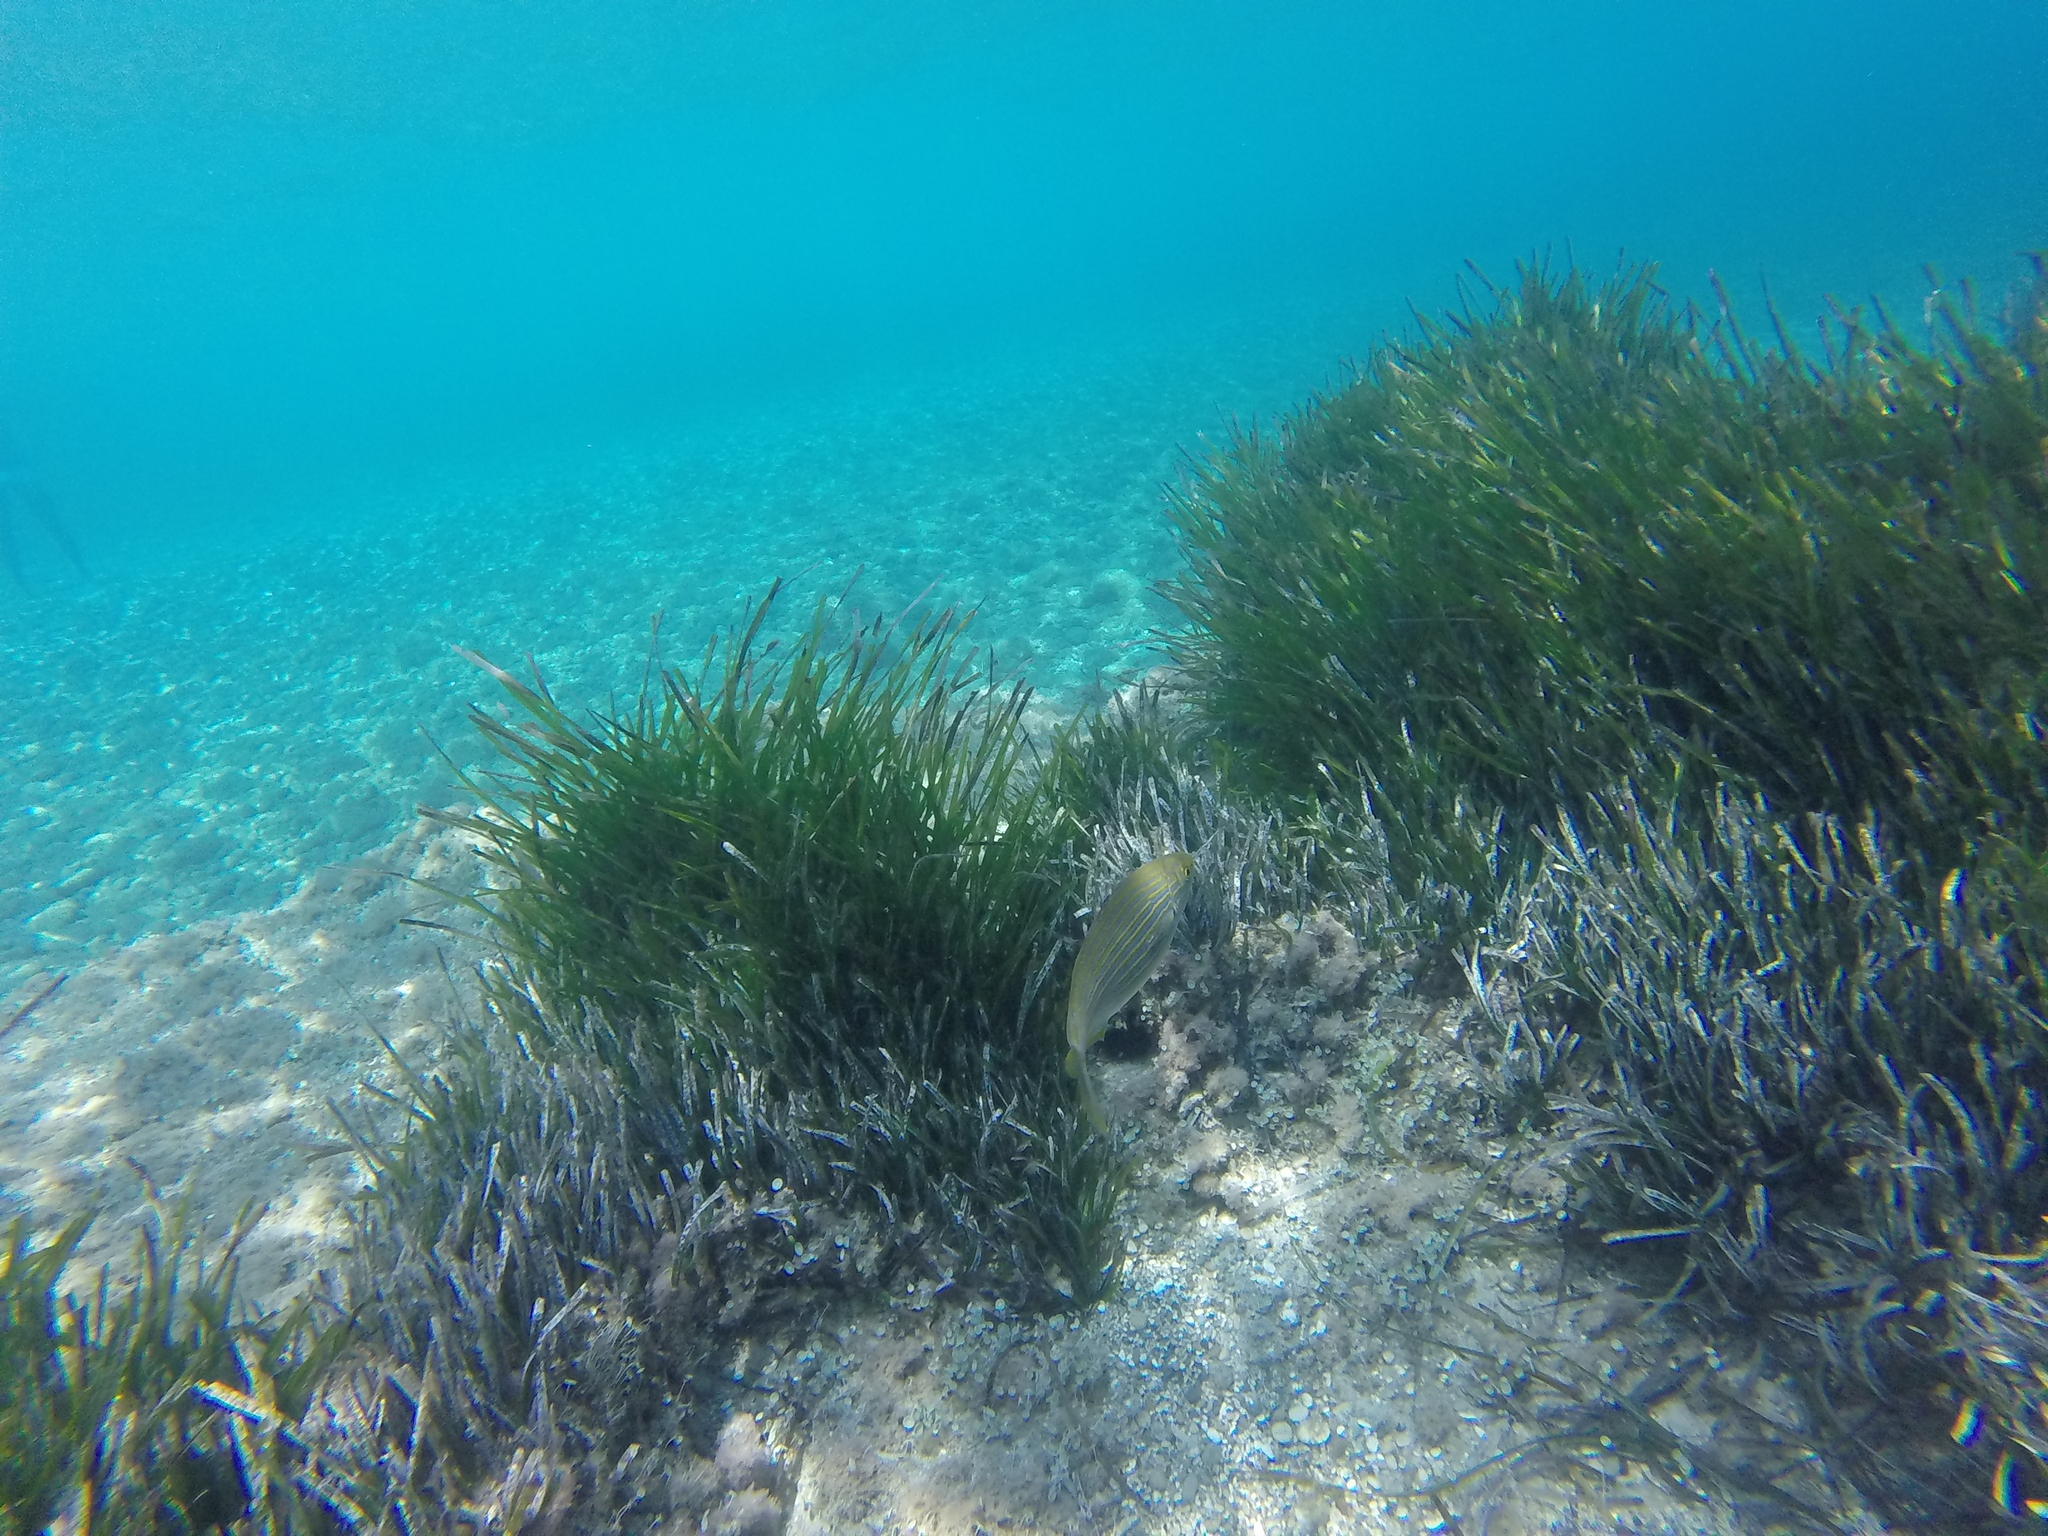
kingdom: Animalia
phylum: Chordata
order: Perciformes
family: Sparidae
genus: Sarpa
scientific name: Sarpa salpa
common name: Salema
